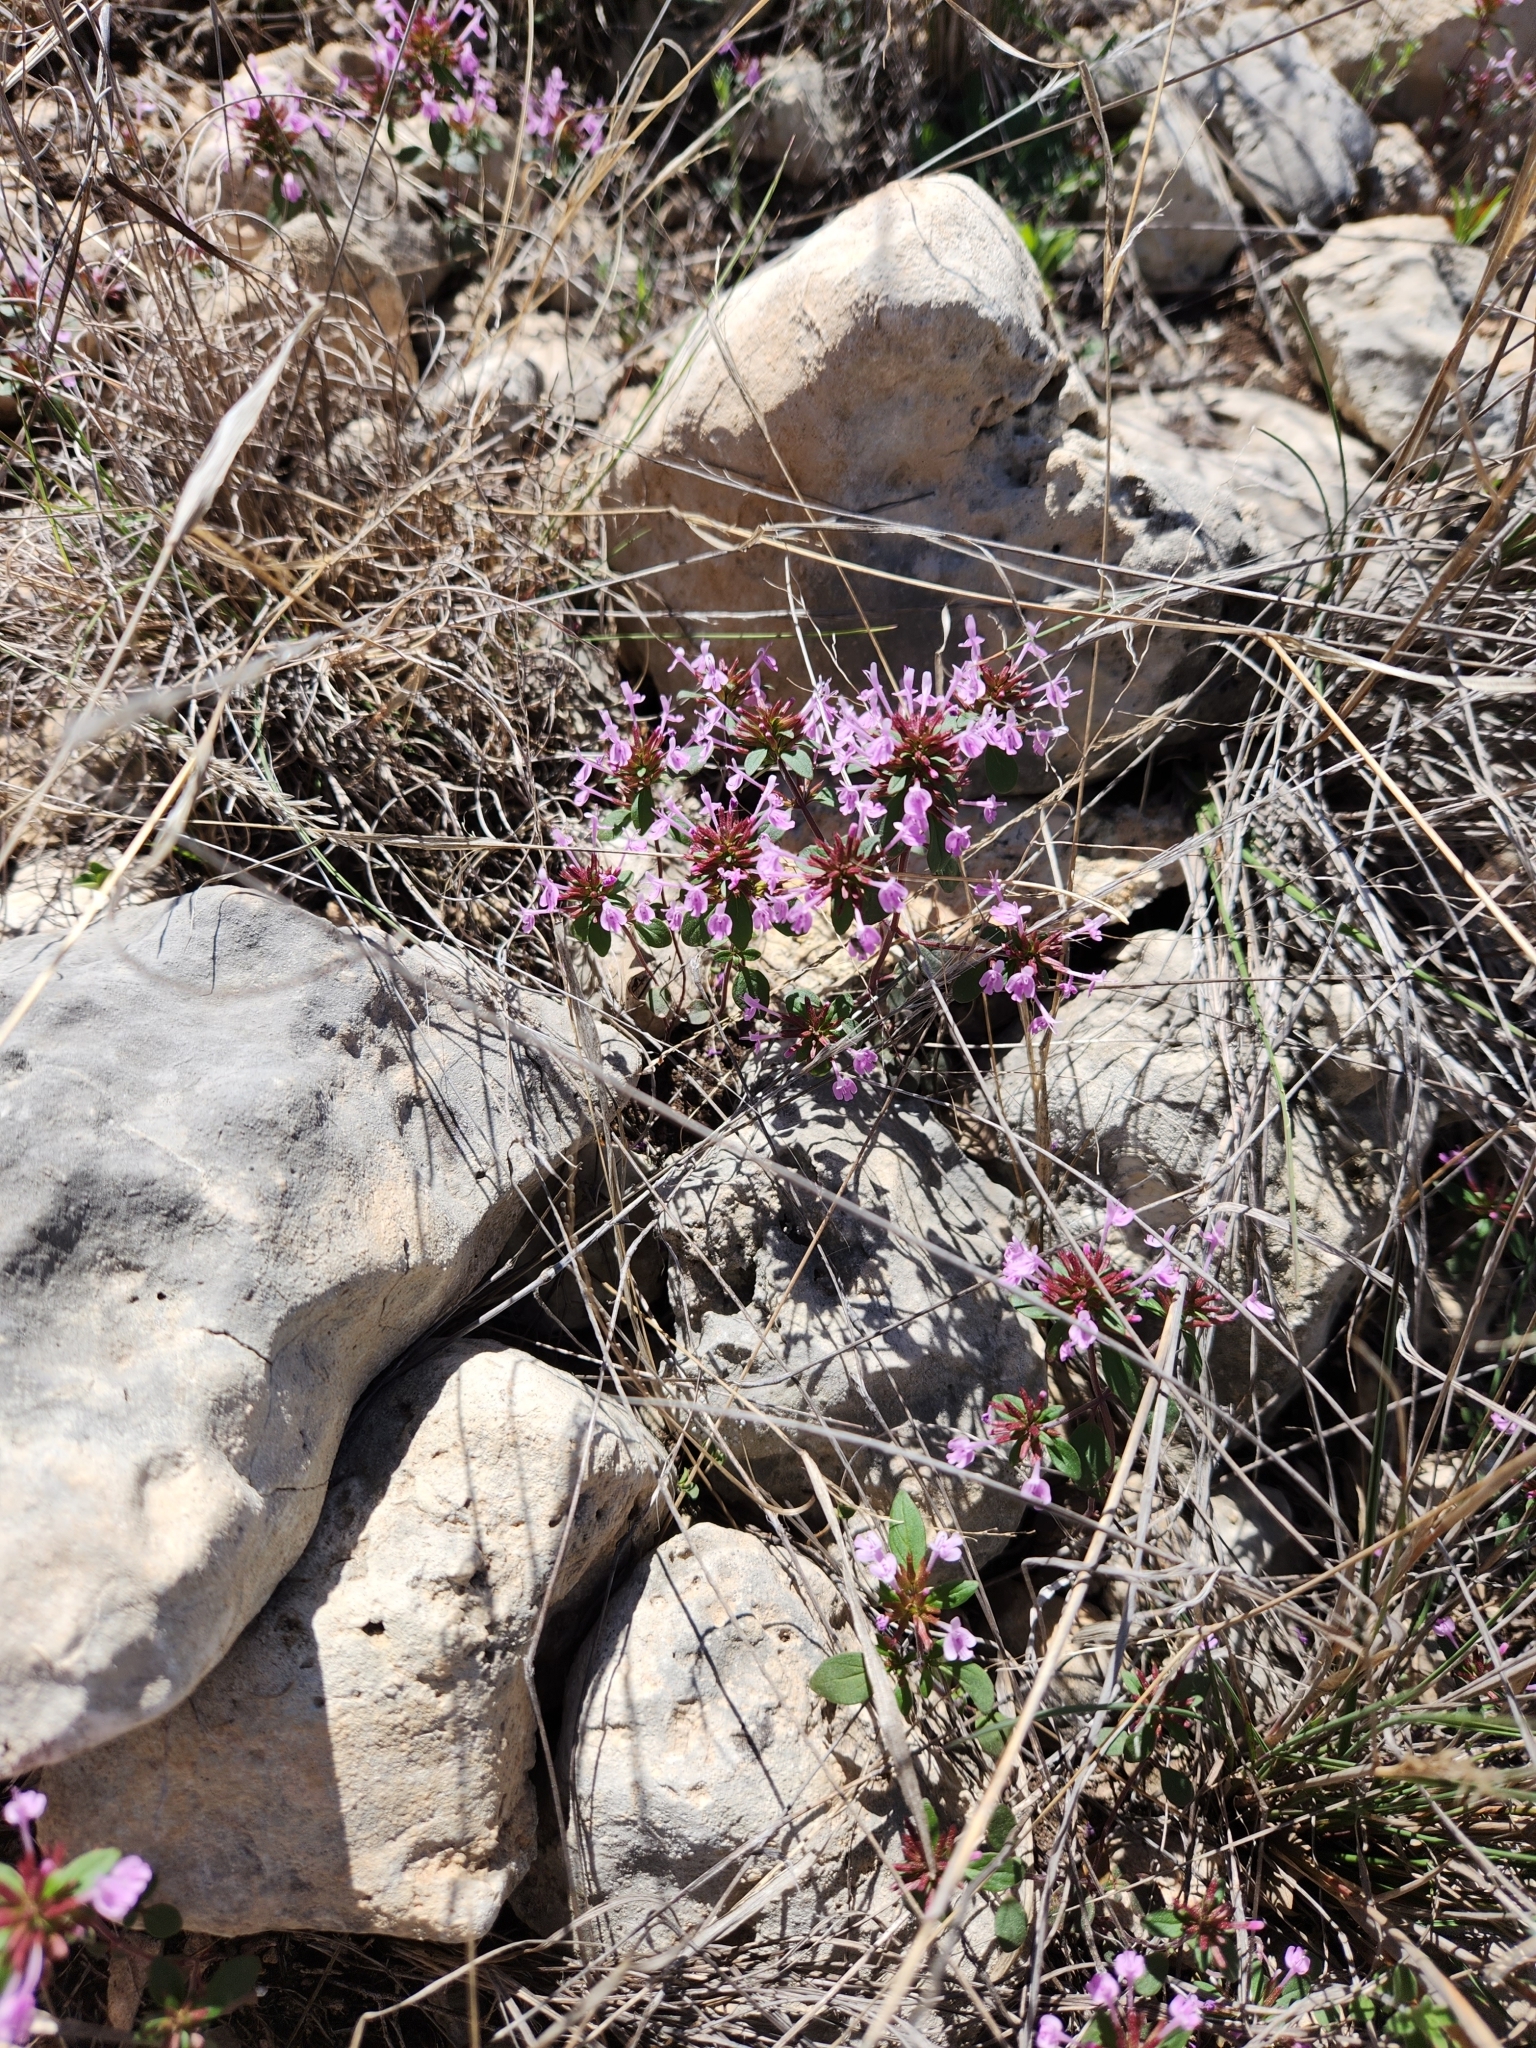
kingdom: Plantae
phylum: Tracheophyta
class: Magnoliopsida
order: Lamiales
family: Lamiaceae
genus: Hedeoma
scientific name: Hedeoma acinoides
